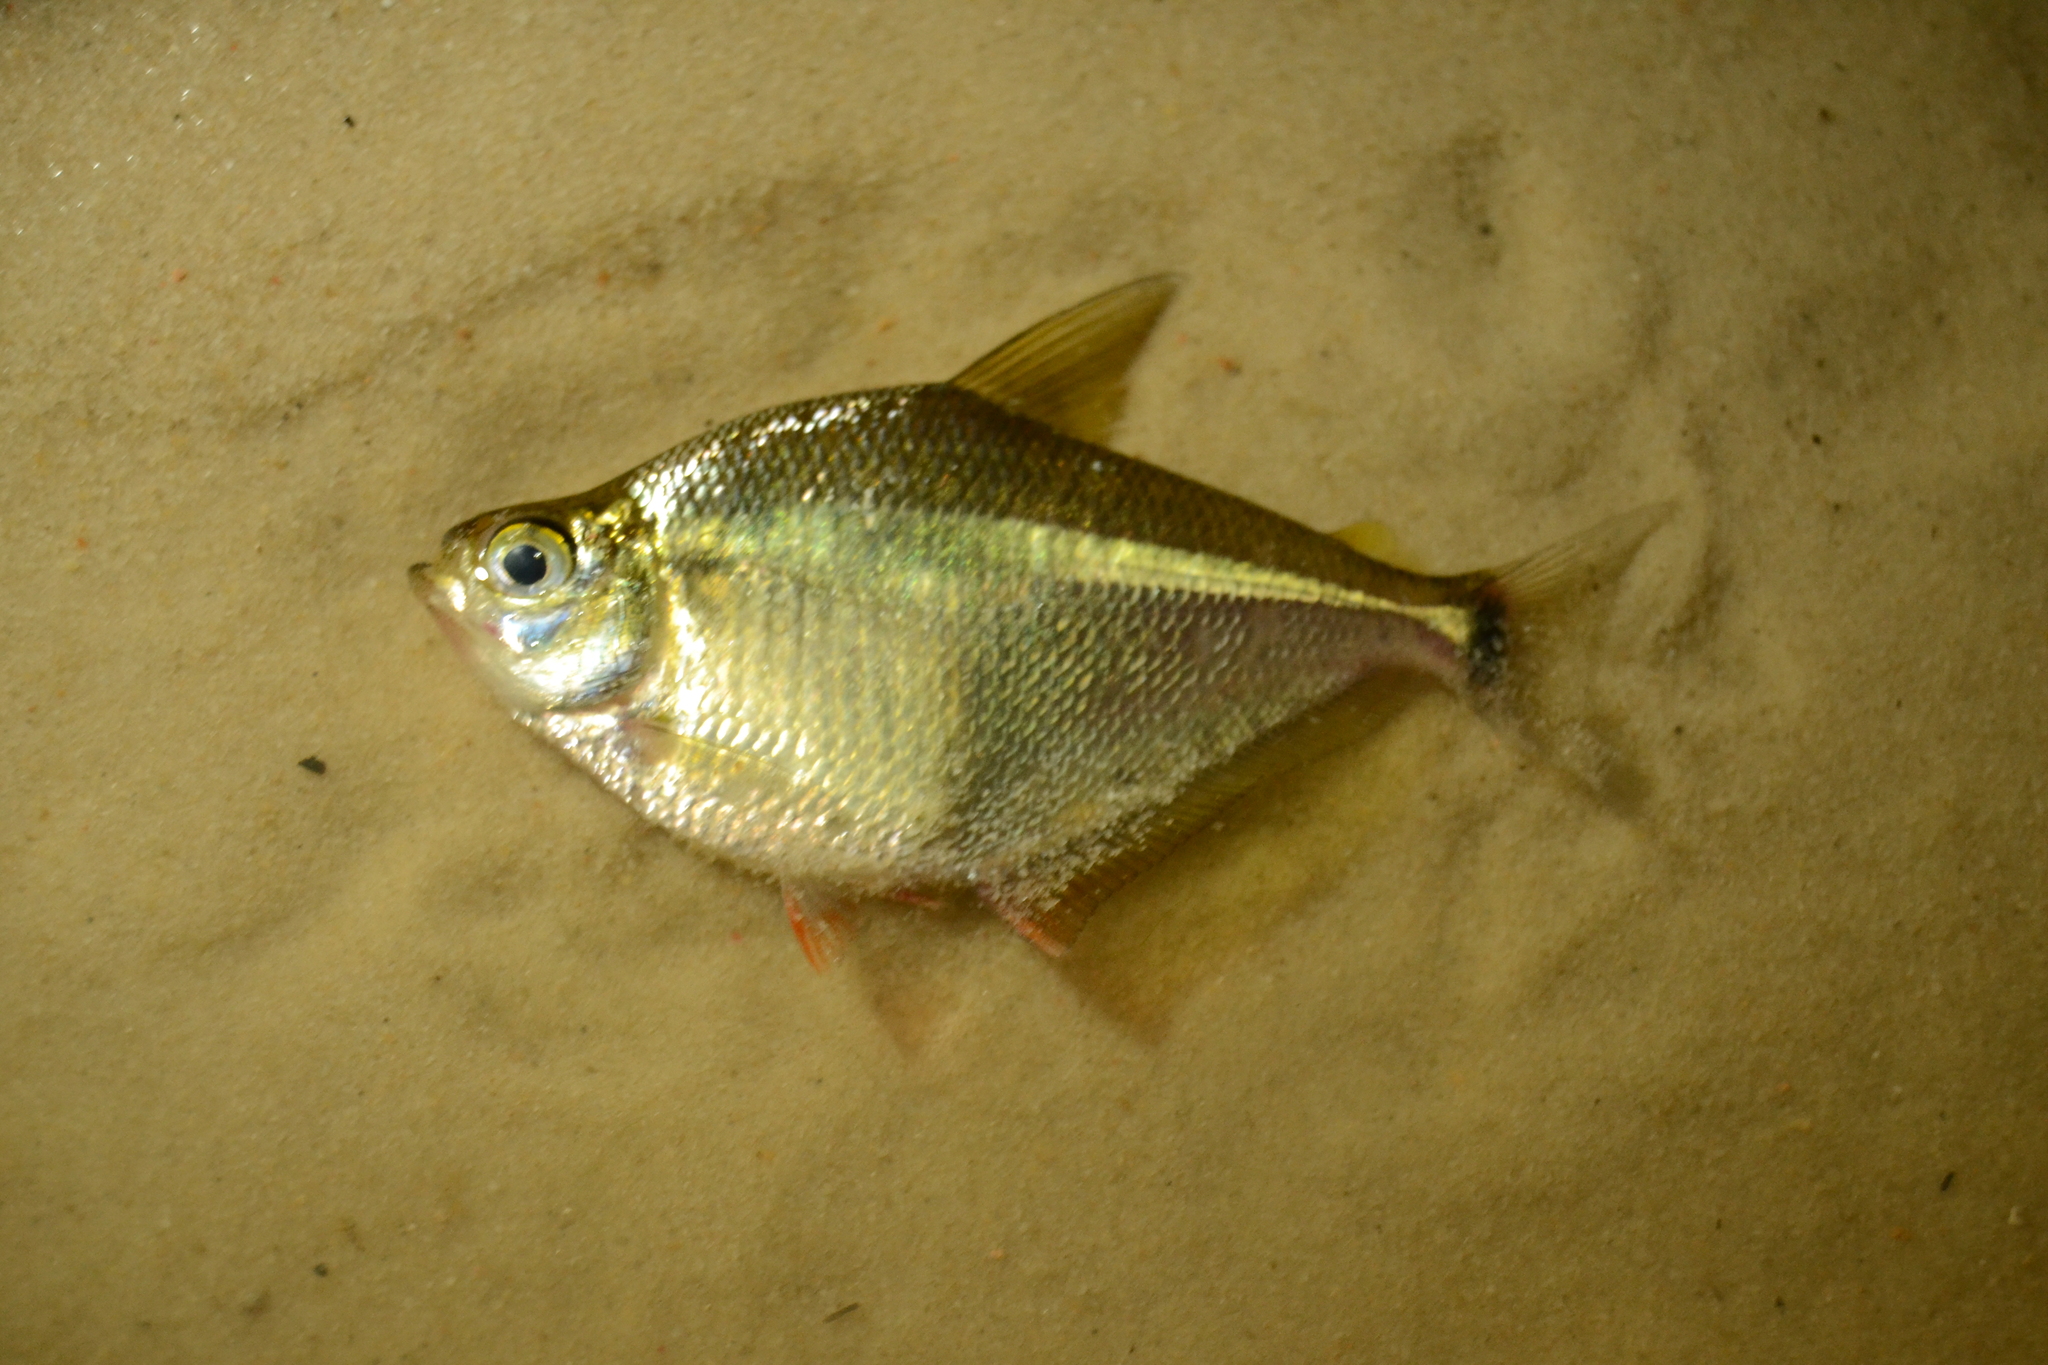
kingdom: Animalia
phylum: Chordata
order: Characiformes
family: Characidae
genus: Tetragonopterus
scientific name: Tetragonopterus argenteus
